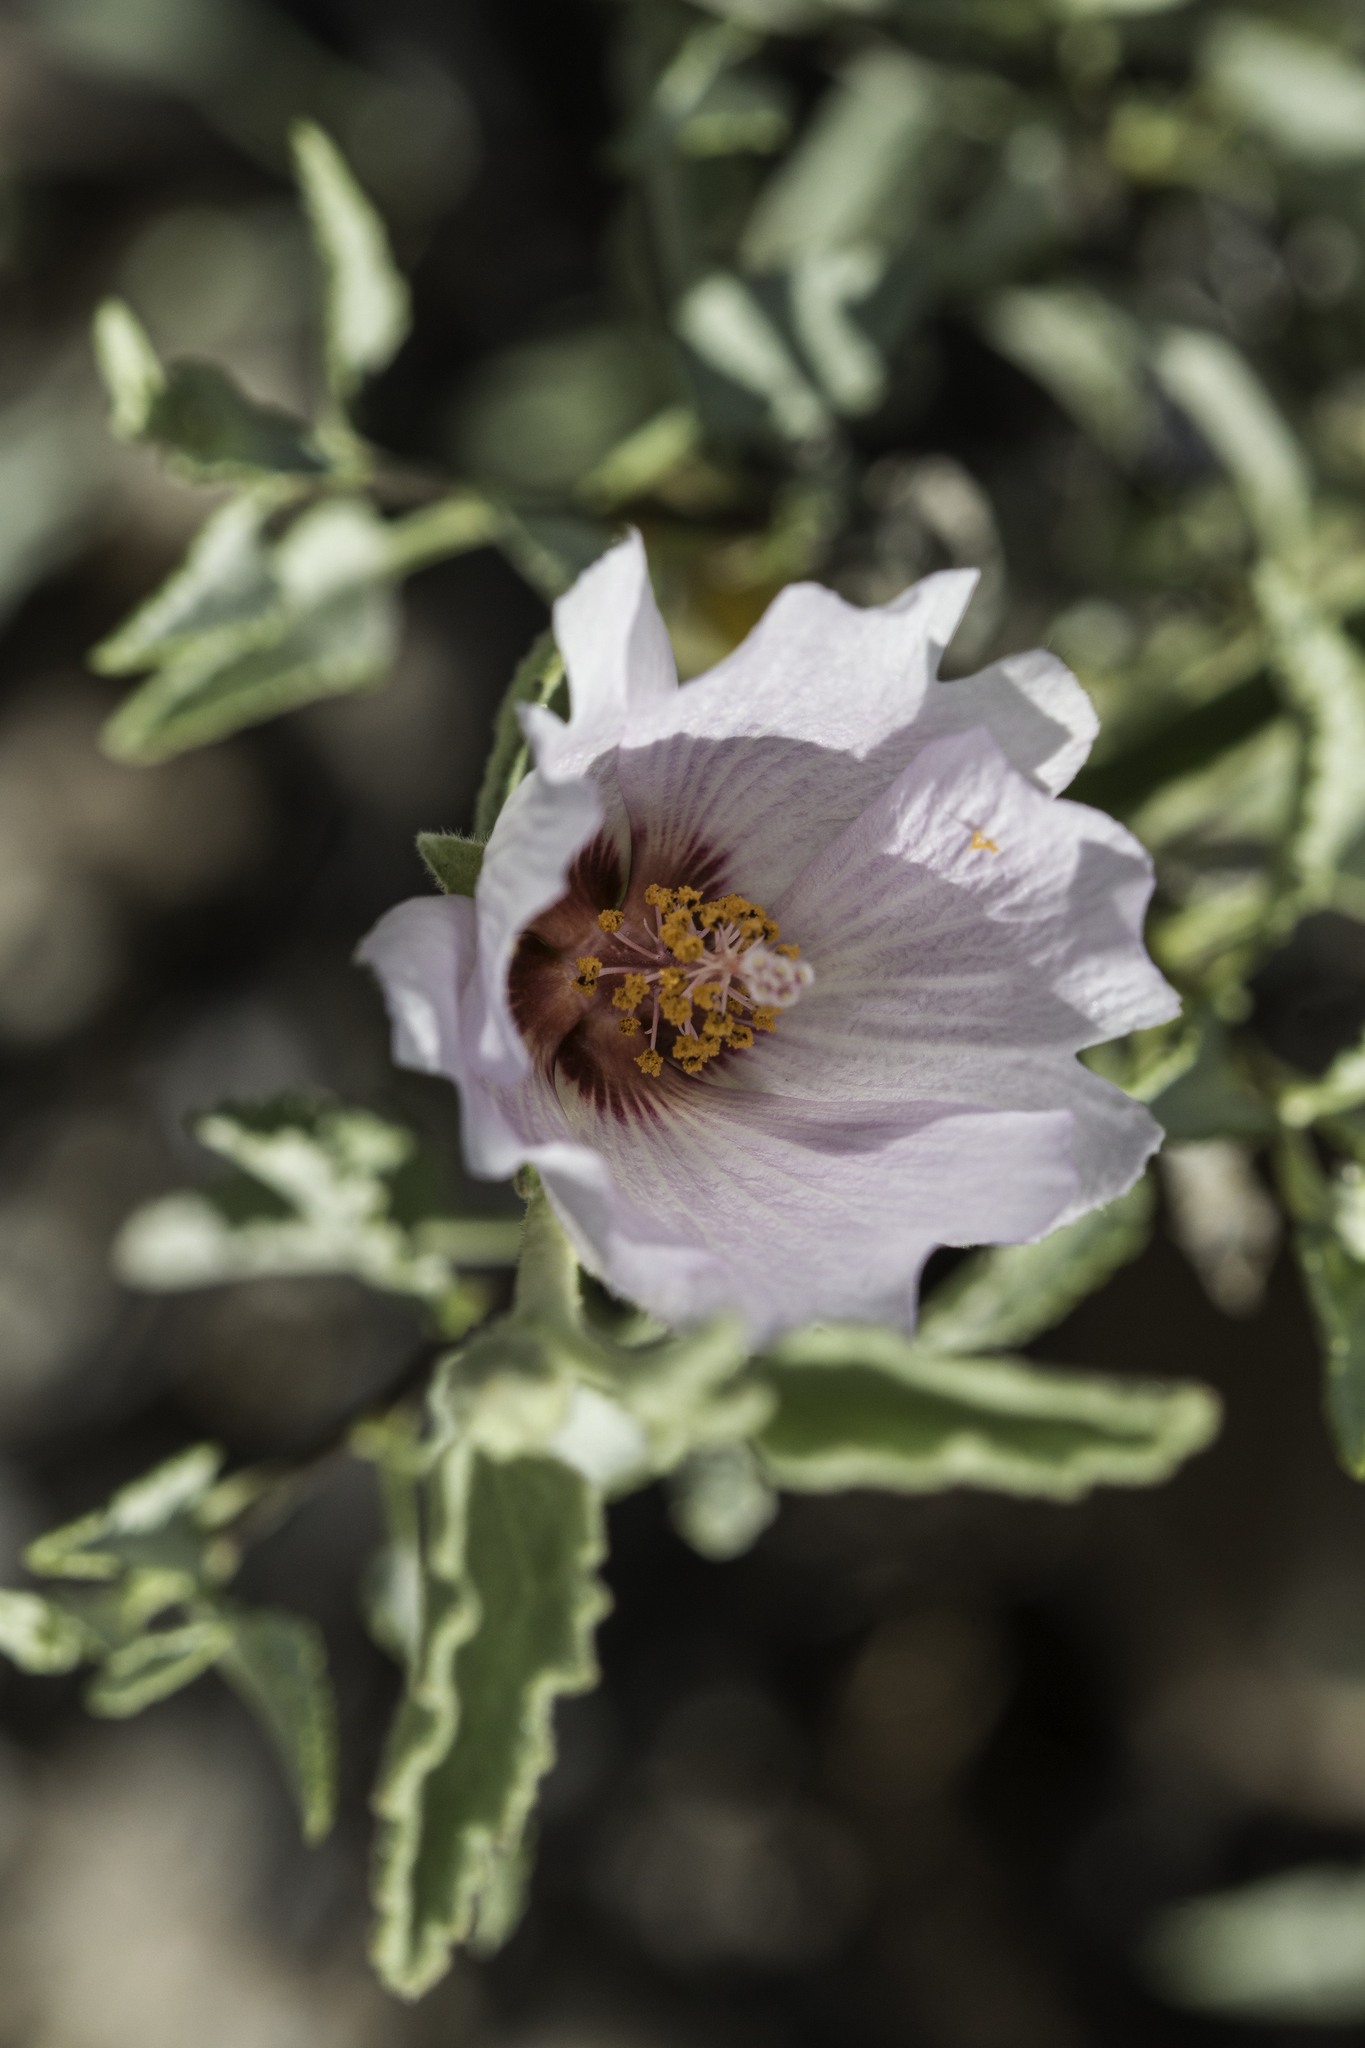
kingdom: Plantae
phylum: Tracheophyta
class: Magnoliopsida
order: Malvales
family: Malvaceae
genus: Hibiscus
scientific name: Hibiscus denudatus
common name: Paleface
